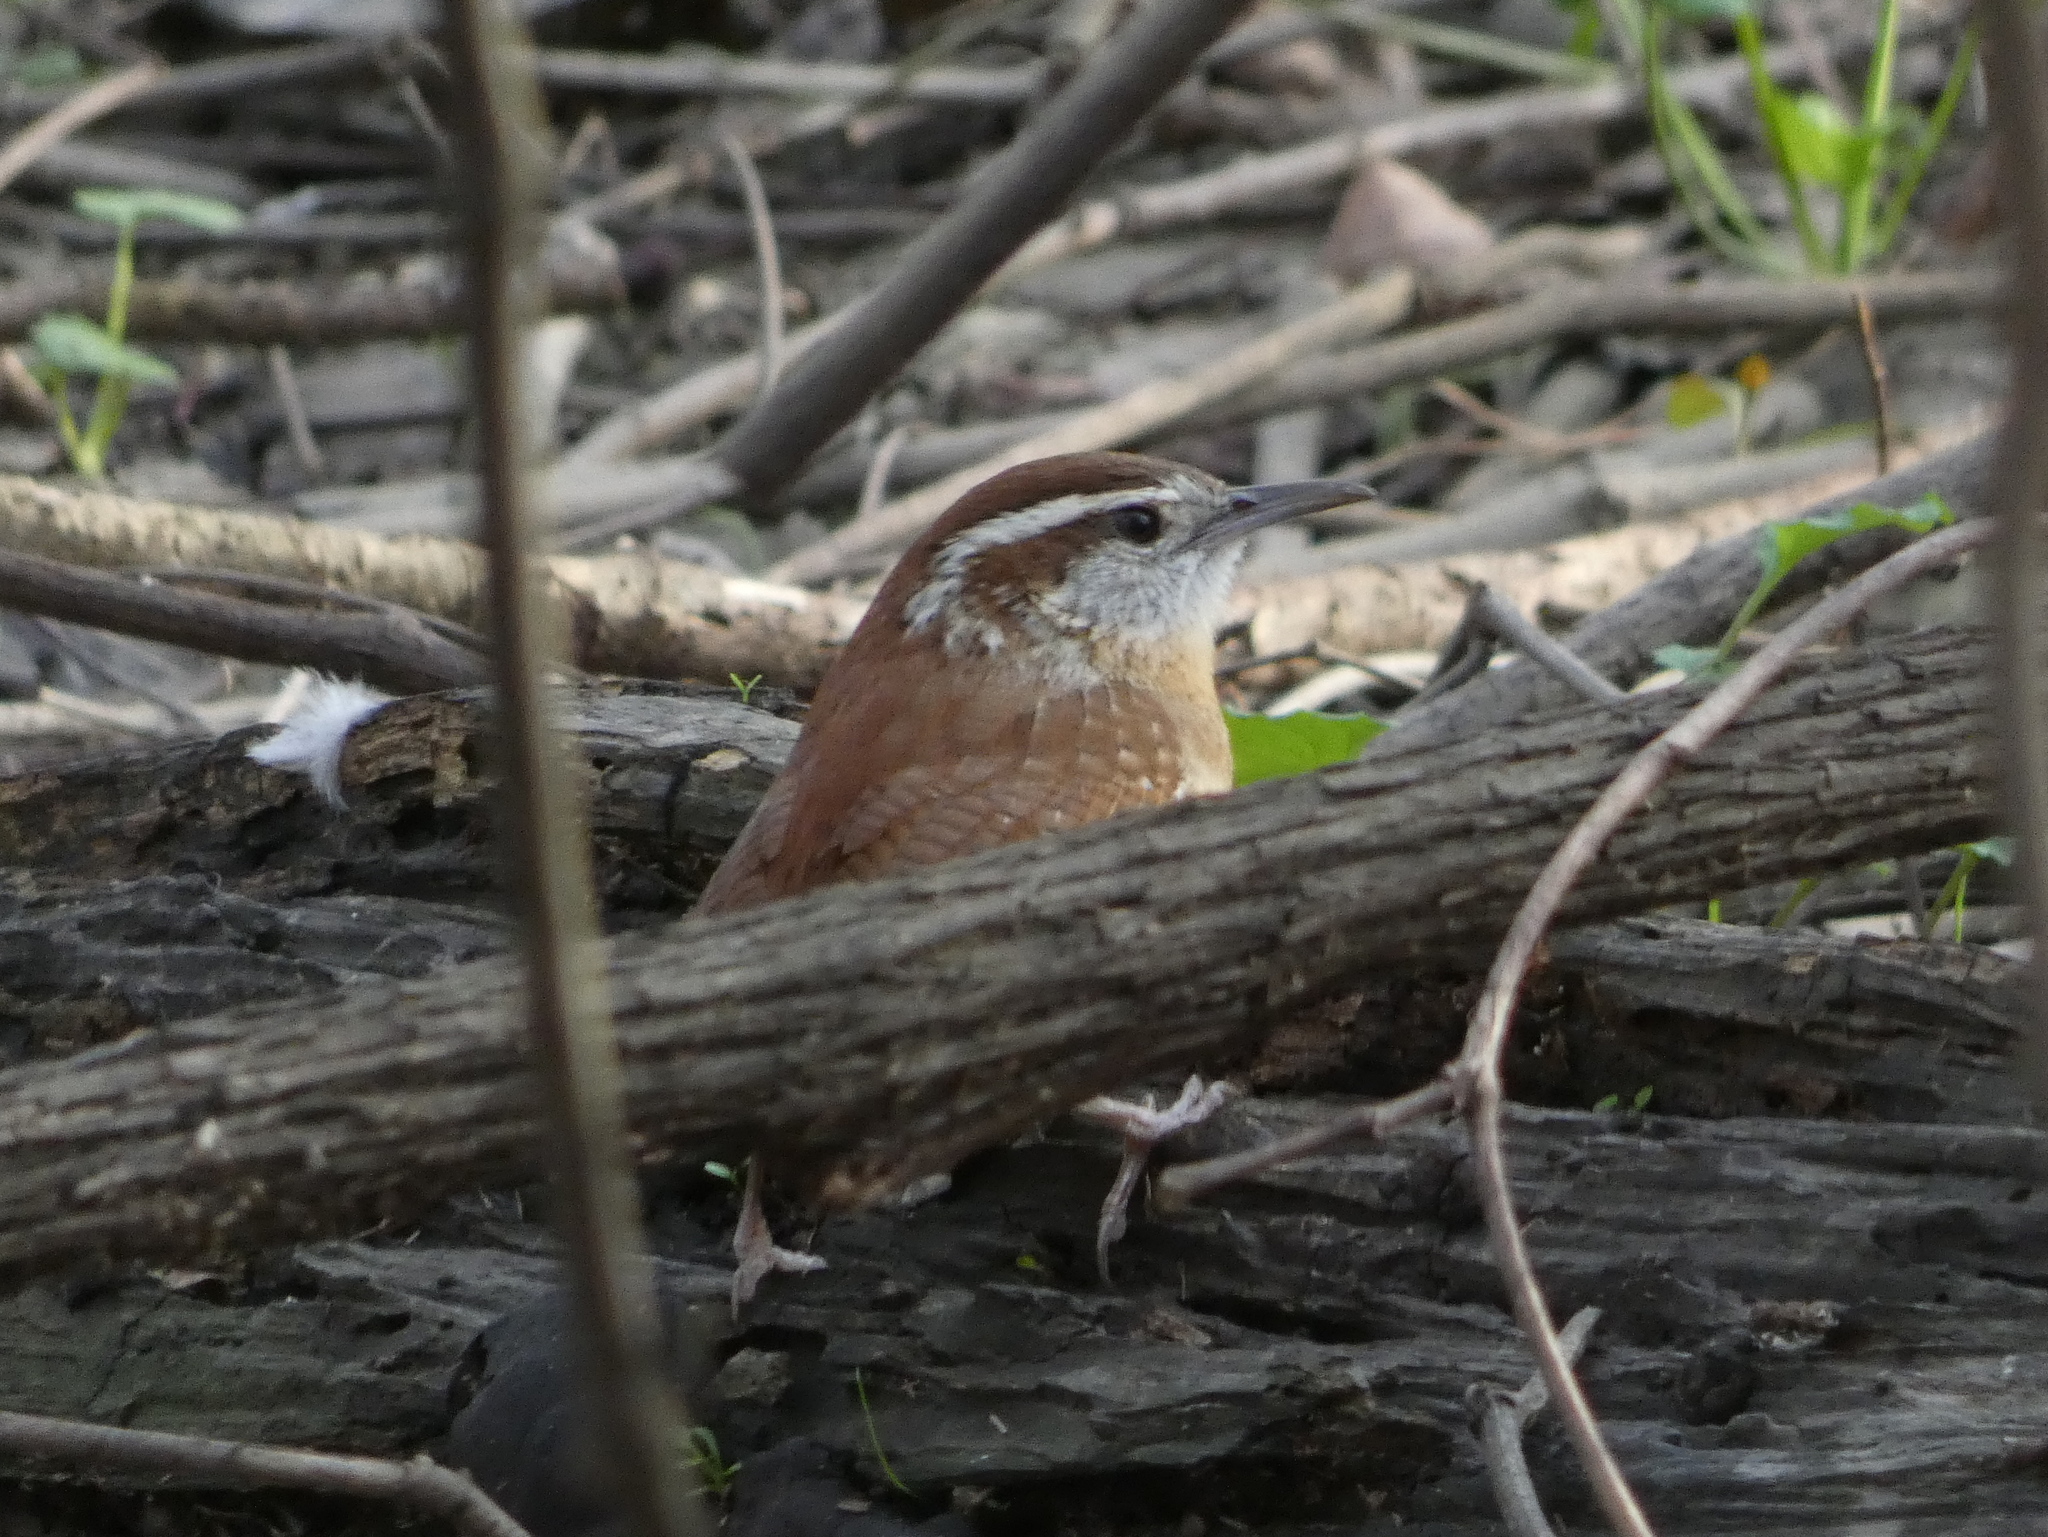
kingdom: Animalia
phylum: Chordata
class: Aves
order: Passeriformes
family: Troglodytidae
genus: Thryothorus
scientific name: Thryothorus ludovicianus
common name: Carolina wren
